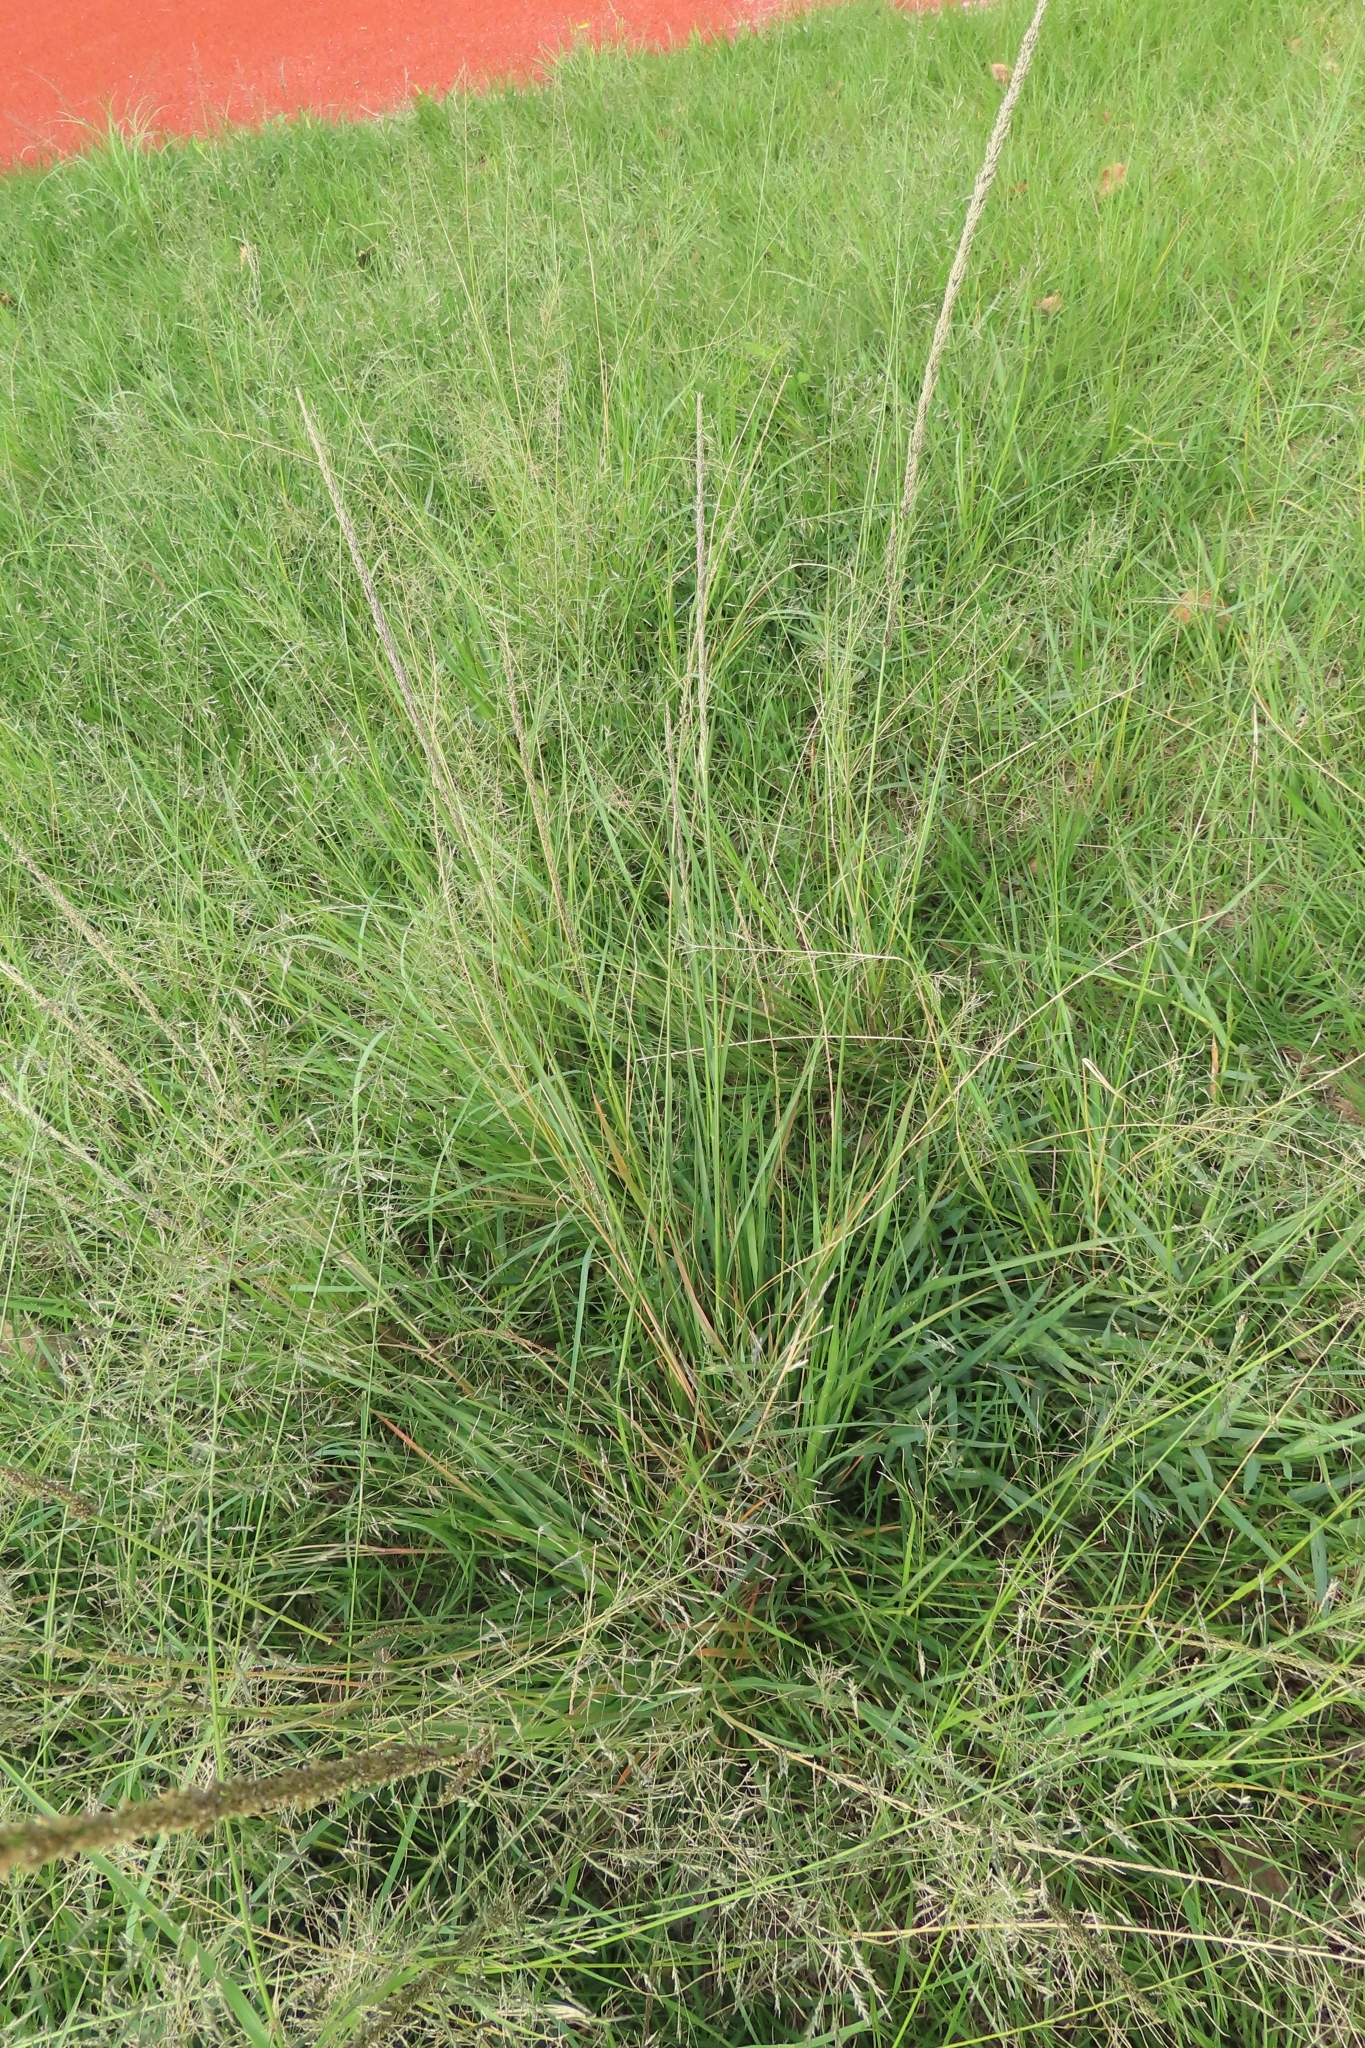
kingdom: Plantae
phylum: Tracheophyta
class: Liliopsida
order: Poales
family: Poaceae
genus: Sporobolus
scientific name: Sporobolus indicus
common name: Smut grass
